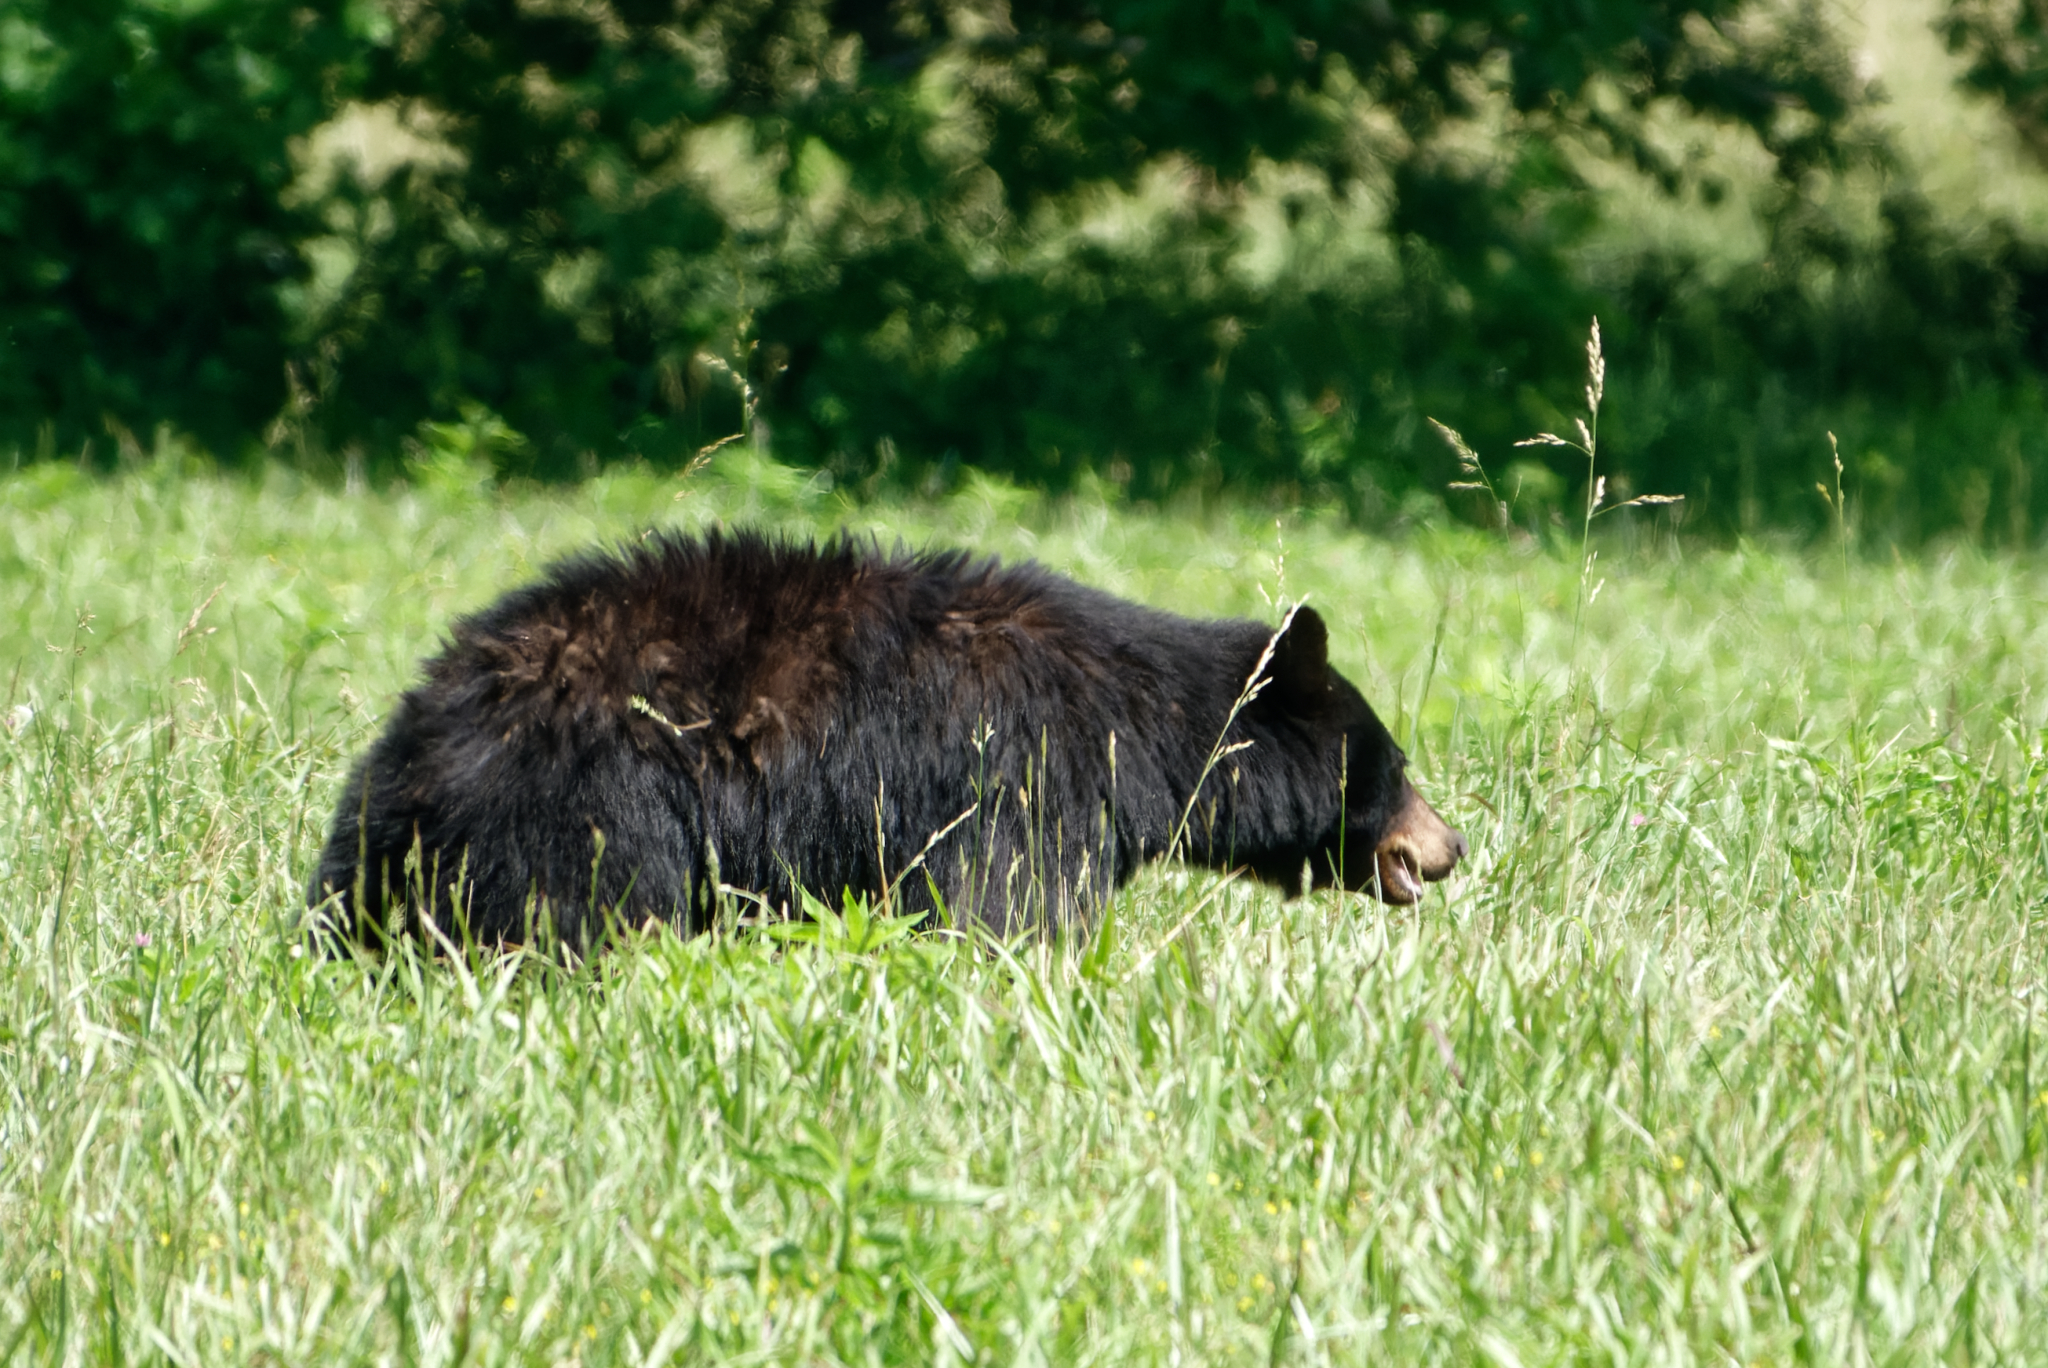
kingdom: Animalia
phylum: Chordata
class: Mammalia
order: Carnivora
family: Ursidae
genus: Ursus
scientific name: Ursus americanus
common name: American black bear
